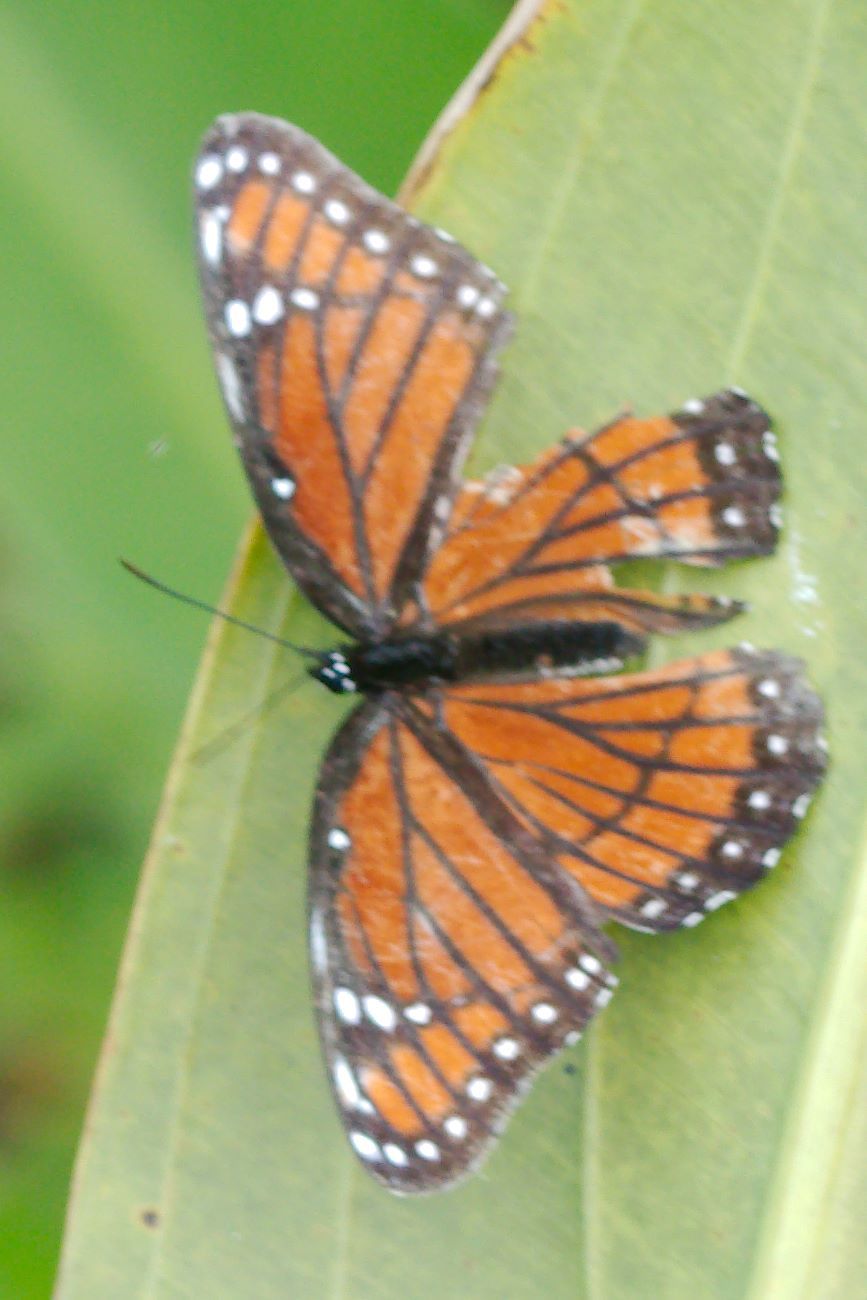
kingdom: Animalia
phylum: Arthropoda
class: Insecta
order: Lepidoptera
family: Nymphalidae
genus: Limenitis
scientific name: Limenitis archippus
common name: Viceroy
